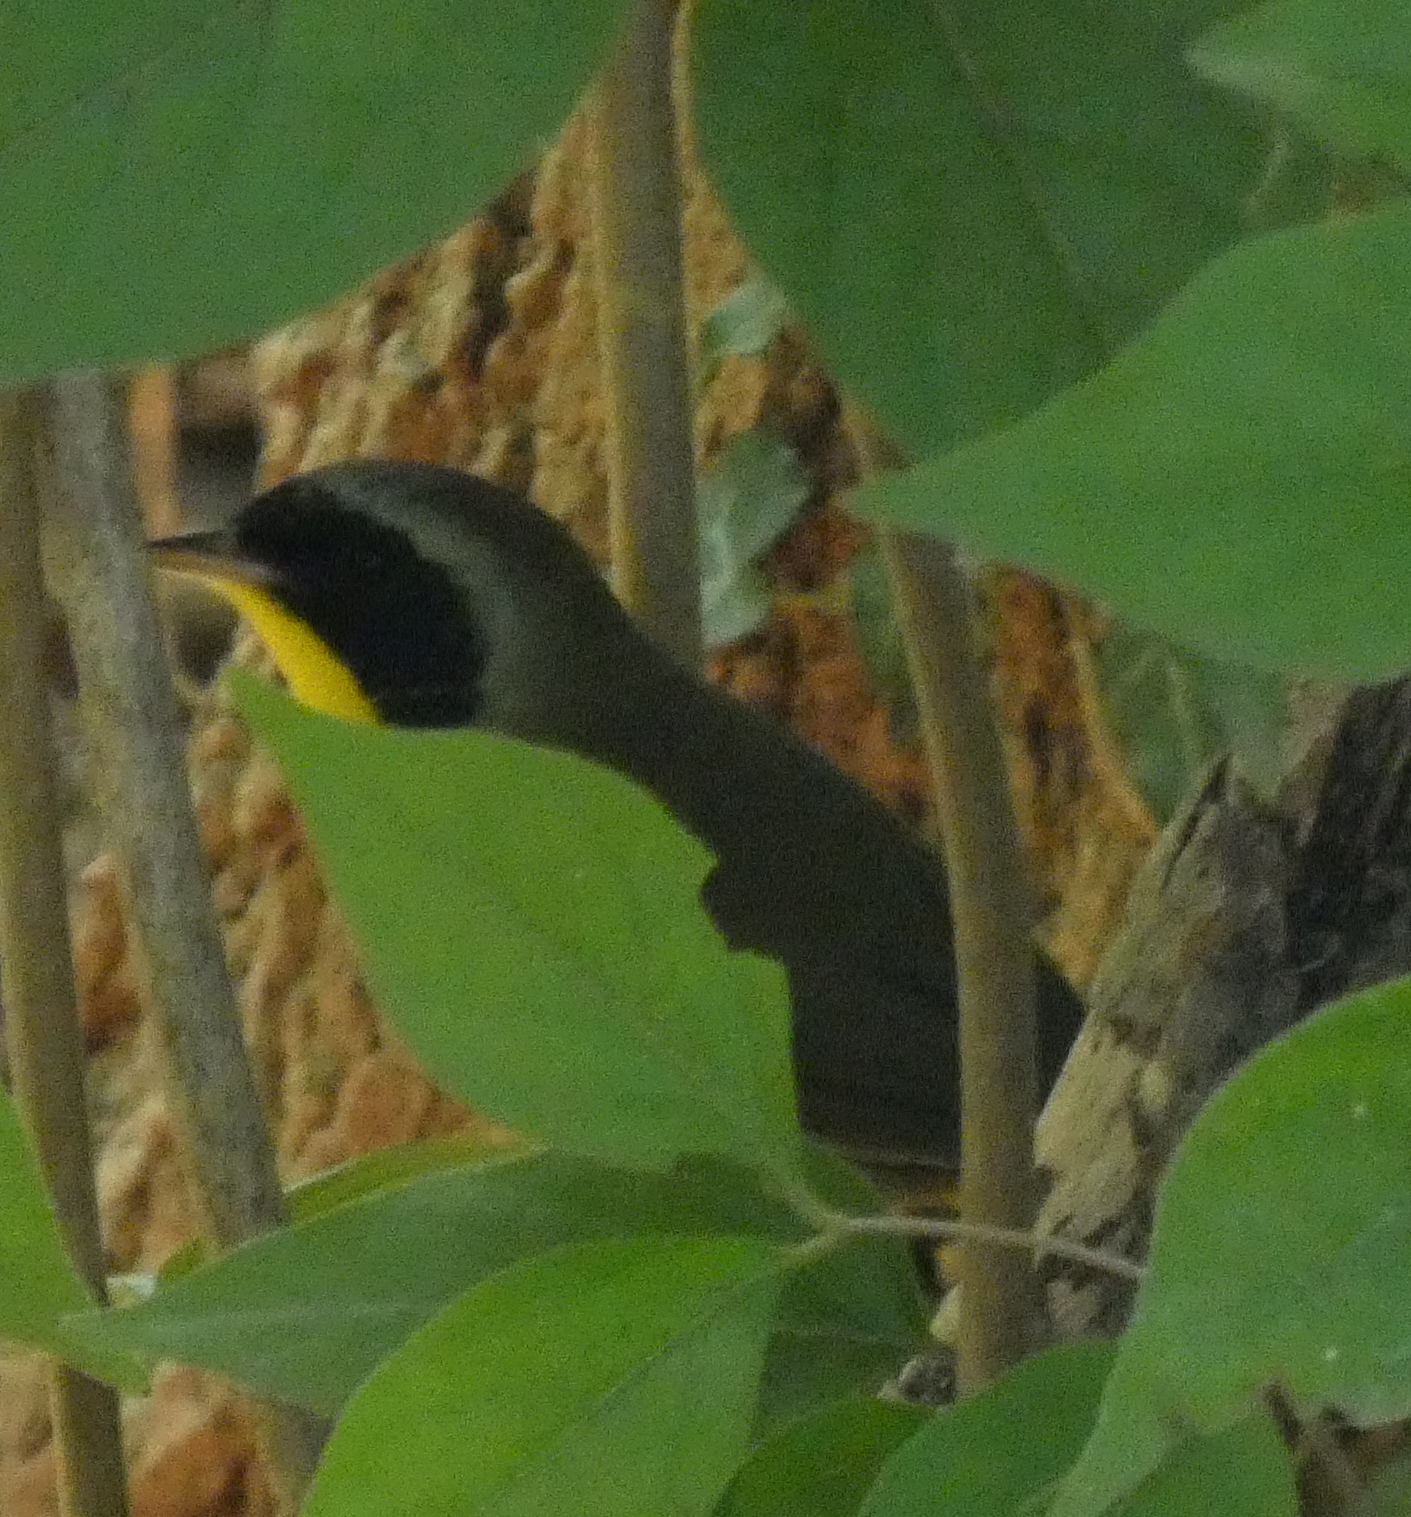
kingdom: Animalia
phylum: Chordata
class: Aves
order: Passeriformes
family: Parulidae
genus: Geothlypis
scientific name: Geothlypis trichas
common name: Common yellowthroat
